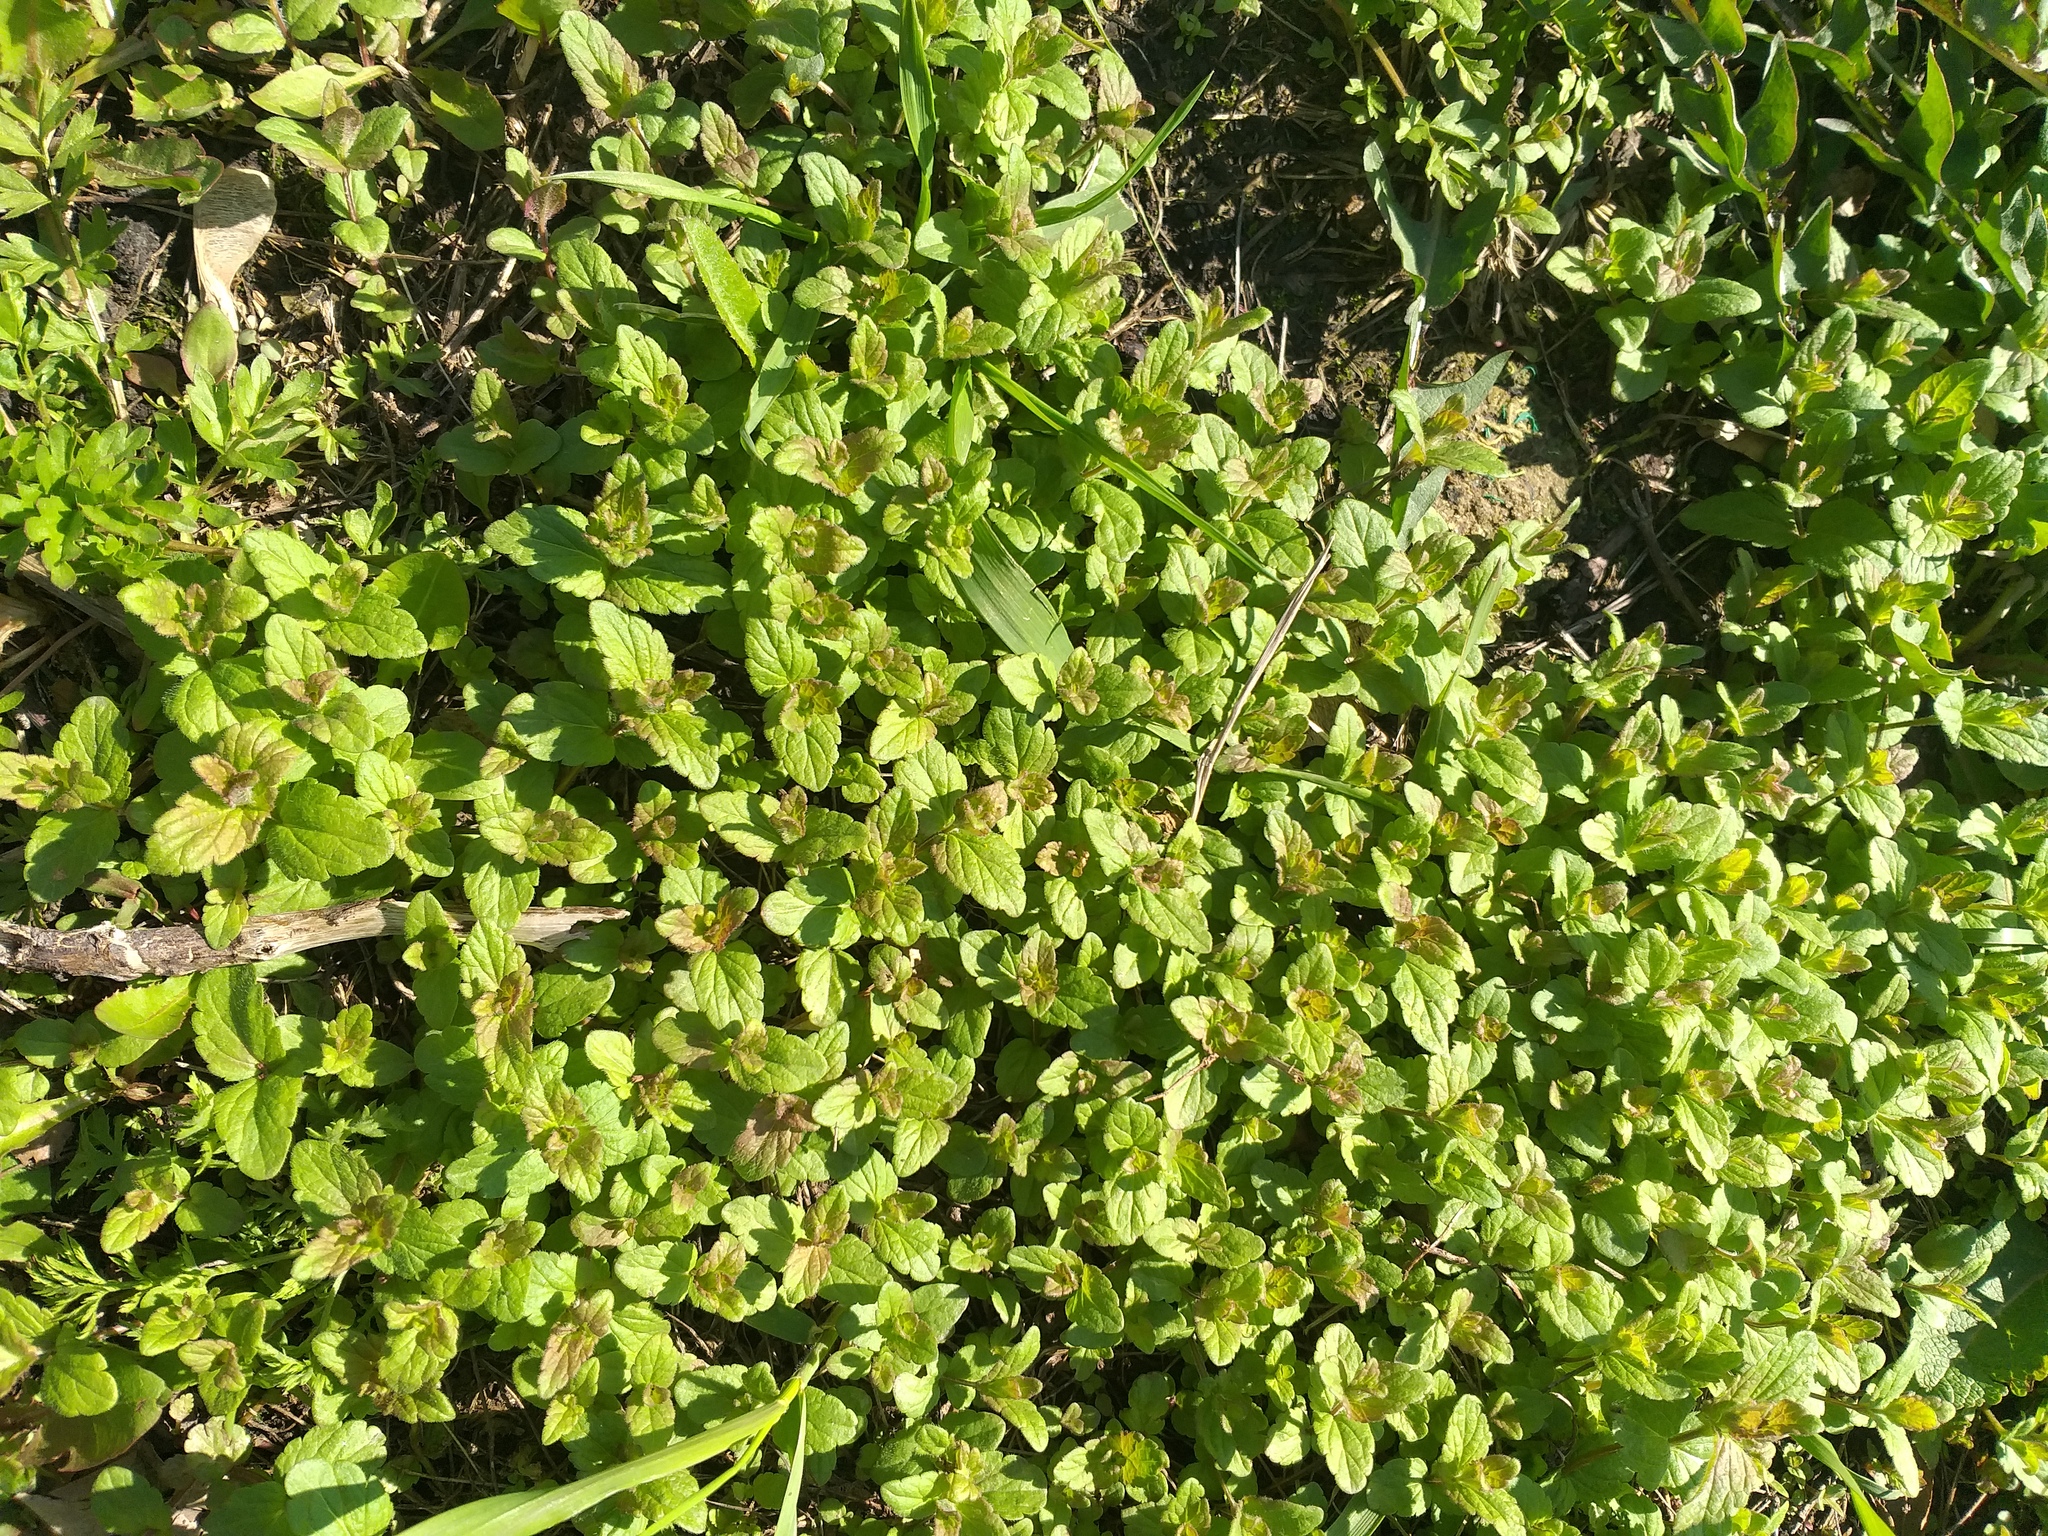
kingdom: Plantae
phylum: Tracheophyta
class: Magnoliopsida
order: Lamiales
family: Plantaginaceae
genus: Veronica
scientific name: Veronica chamaedrys
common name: Germander speedwell
